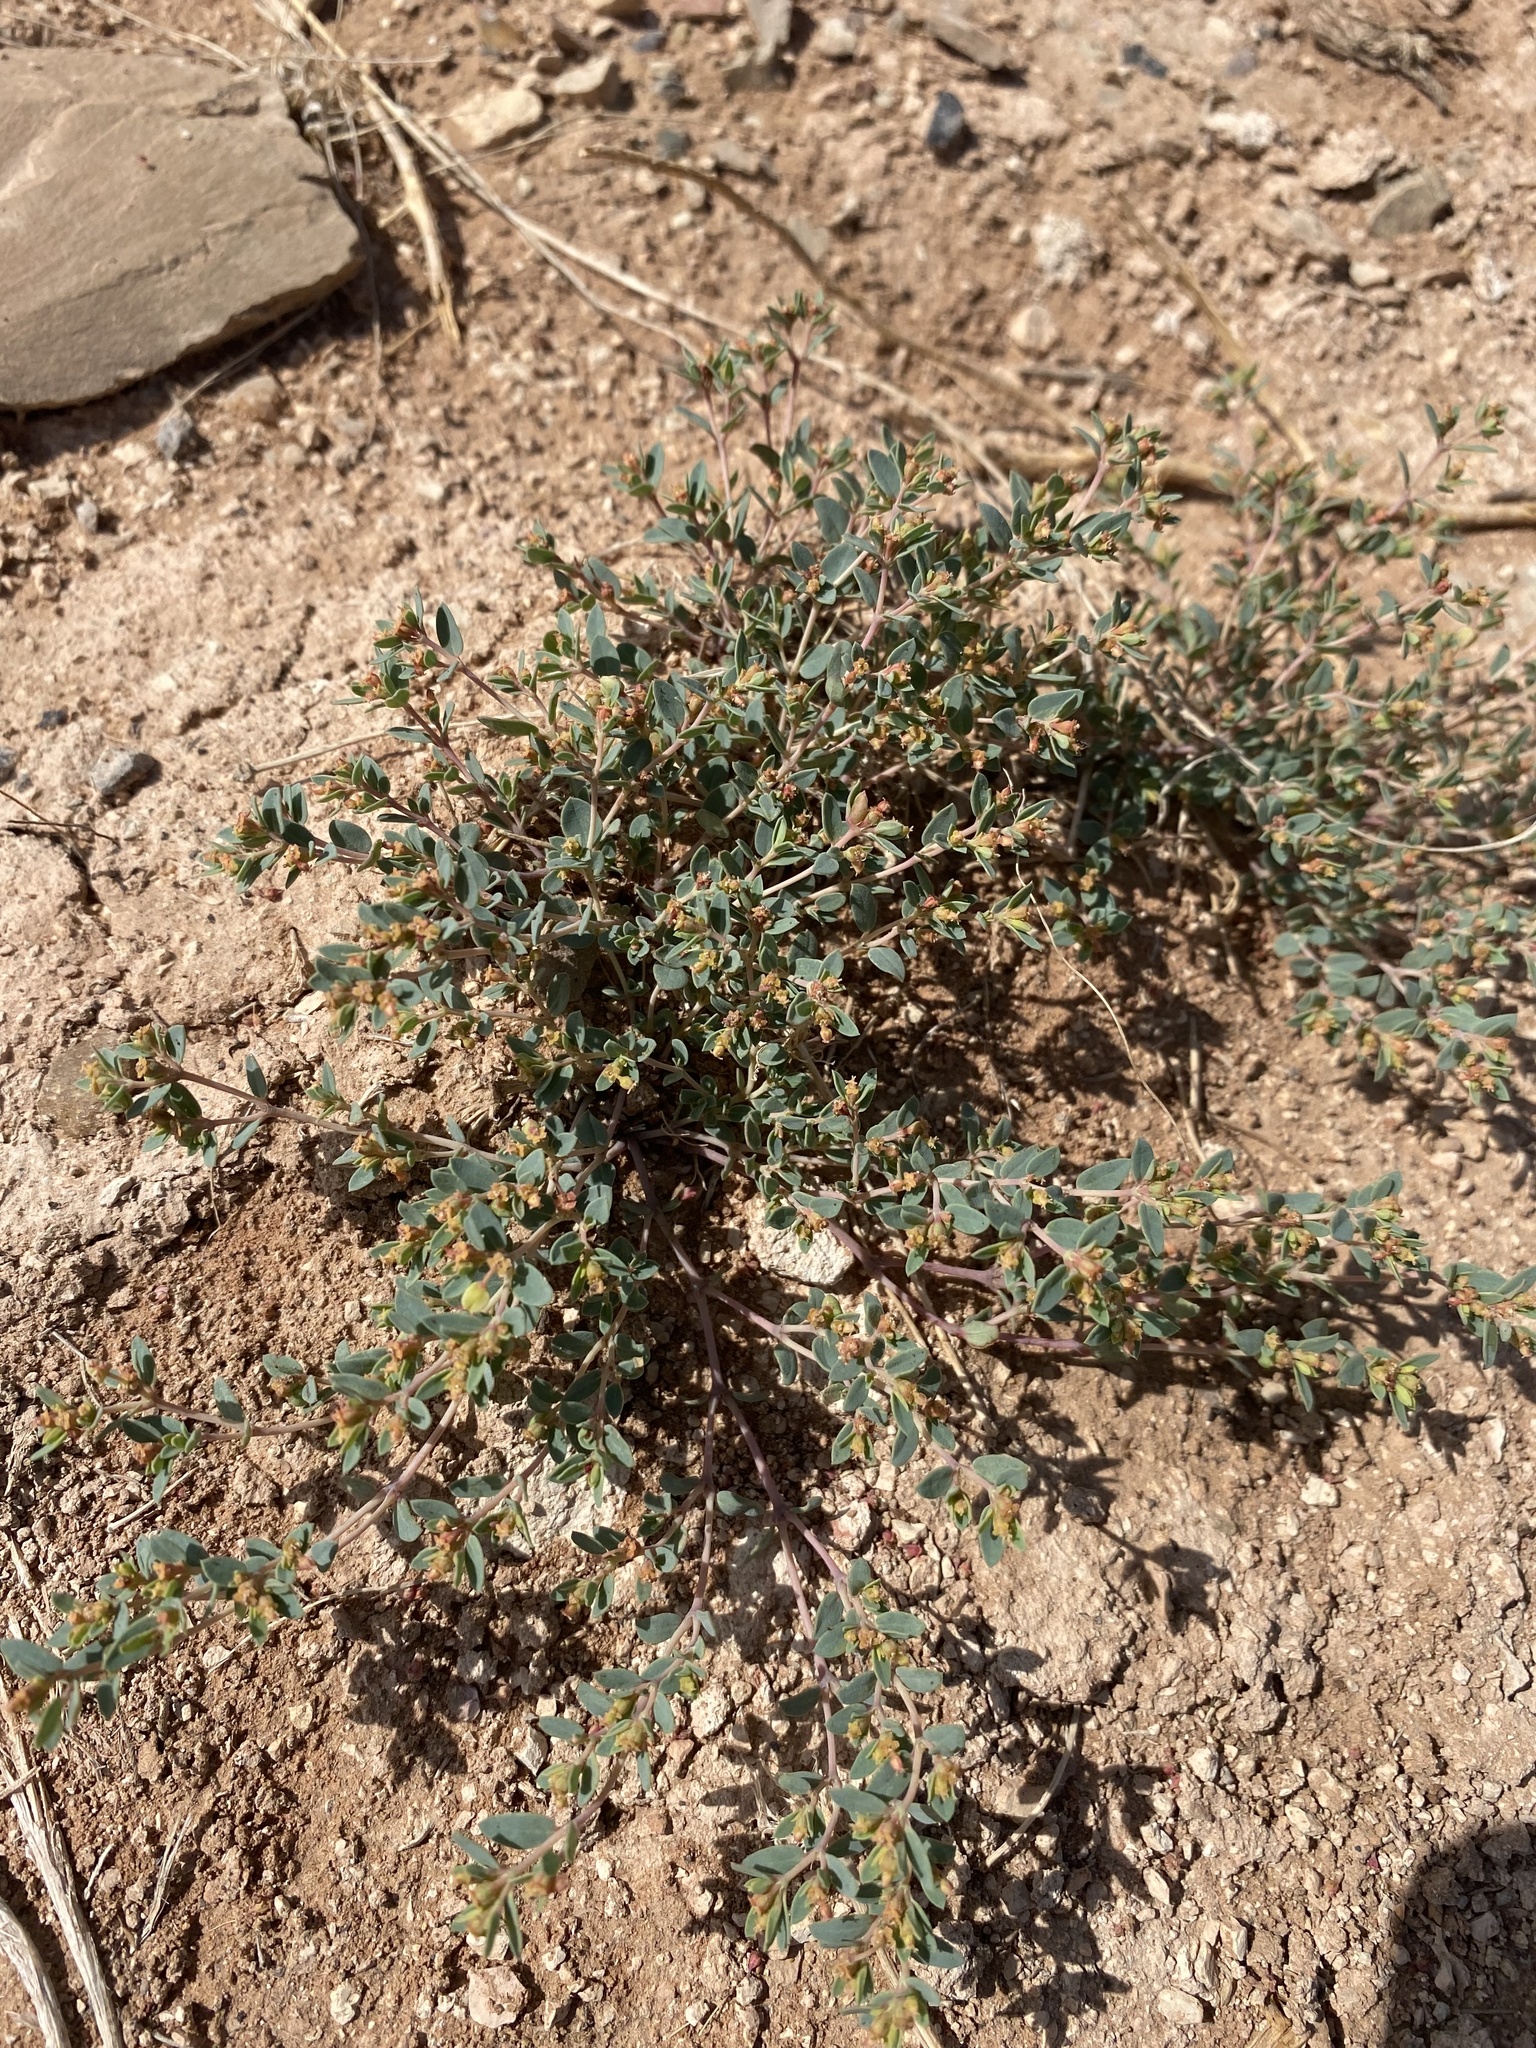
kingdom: Plantae
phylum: Tracheophyta
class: Magnoliopsida
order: Malpighiales
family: Euphorbiaceae
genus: Euphorbia
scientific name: Euphorbia fendleri
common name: Fendler's euphorbia
